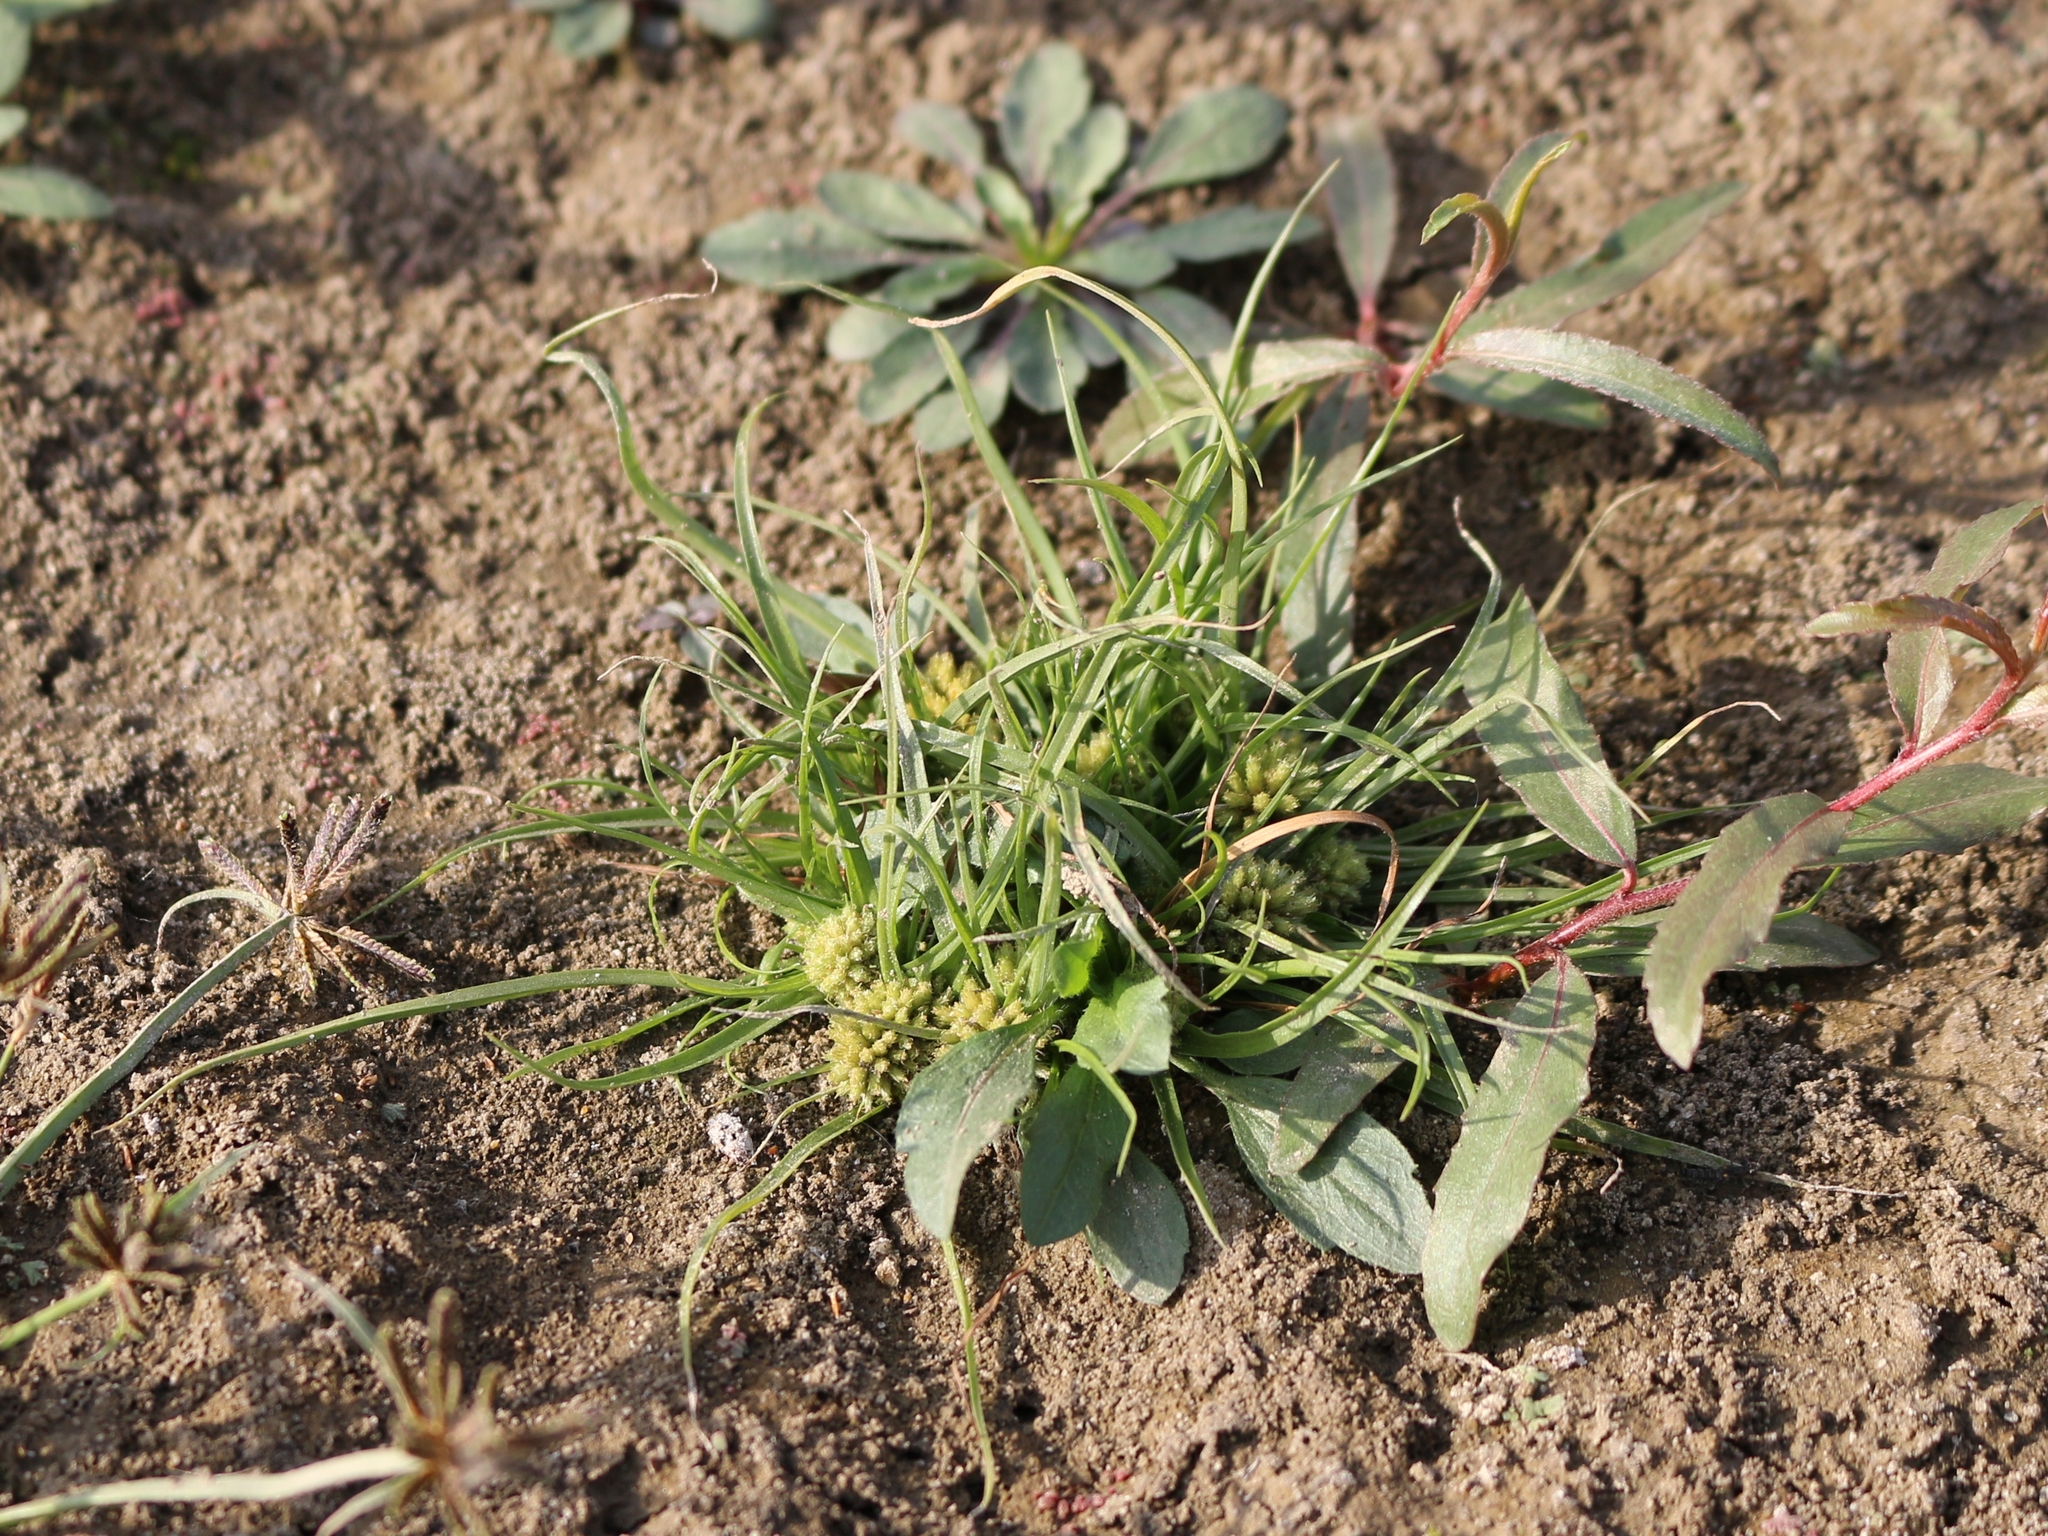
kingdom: Plantae
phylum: Tracheophyta
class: Liliopsida
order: Poales
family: Cyperaceae
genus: Cyperus
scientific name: Cyperus michelianus
